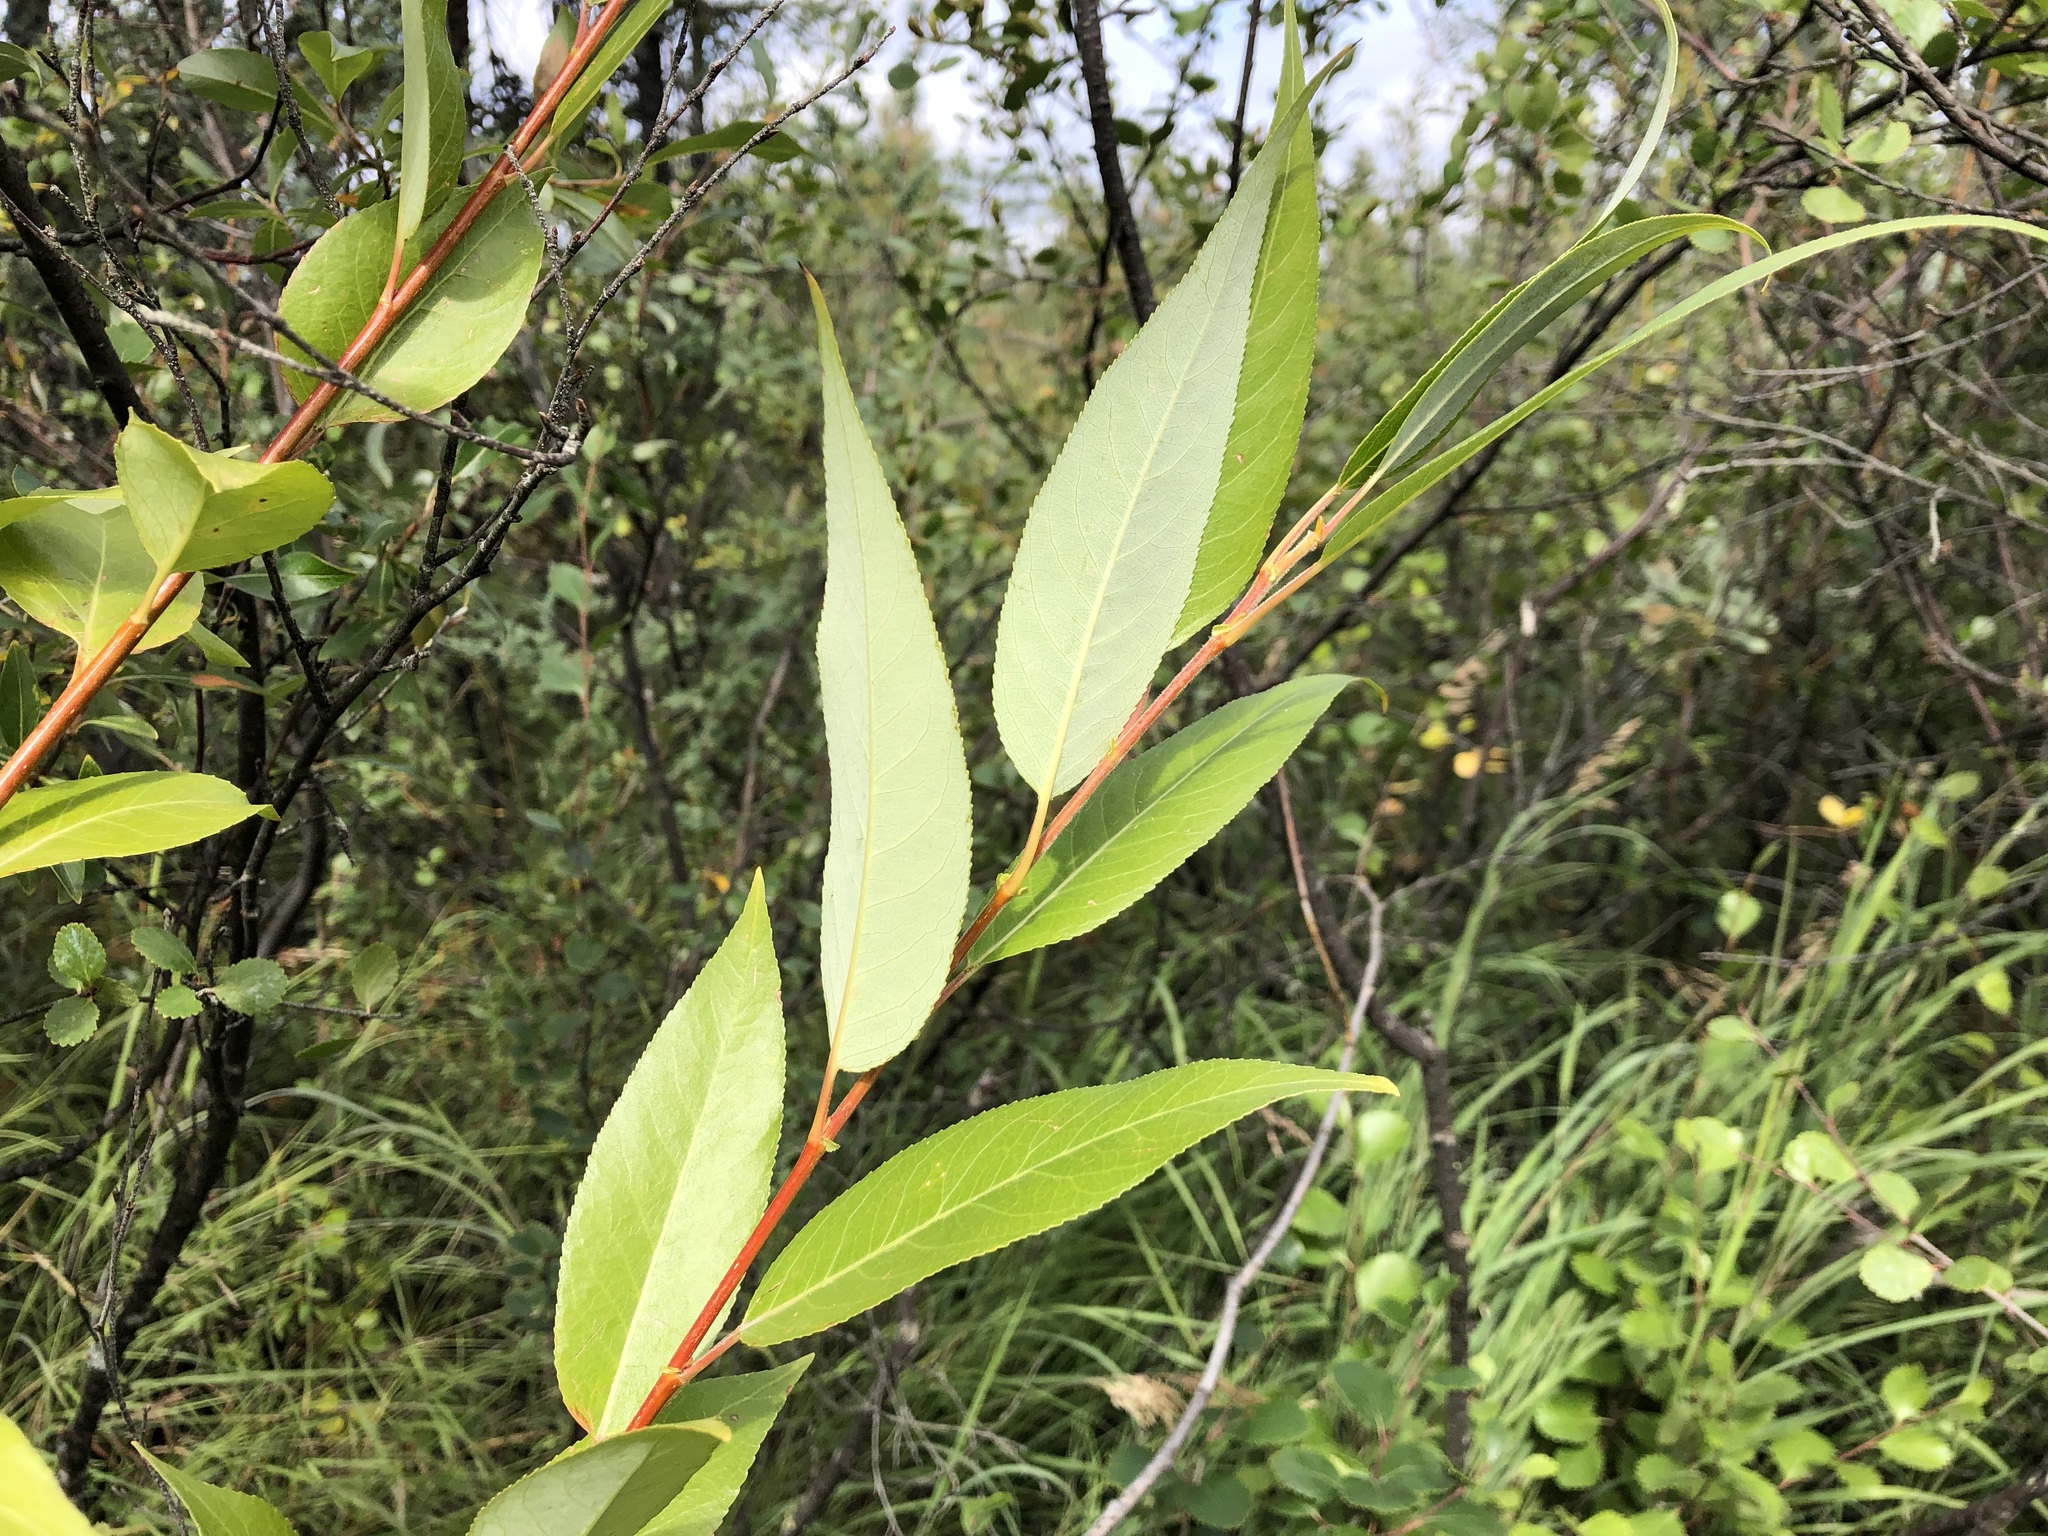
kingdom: Plantae
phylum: Tracheophyta
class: Magnoliopsida
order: Malpighiales
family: Salicaceae
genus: Salix
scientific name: Salix lucida
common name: Shining willow
